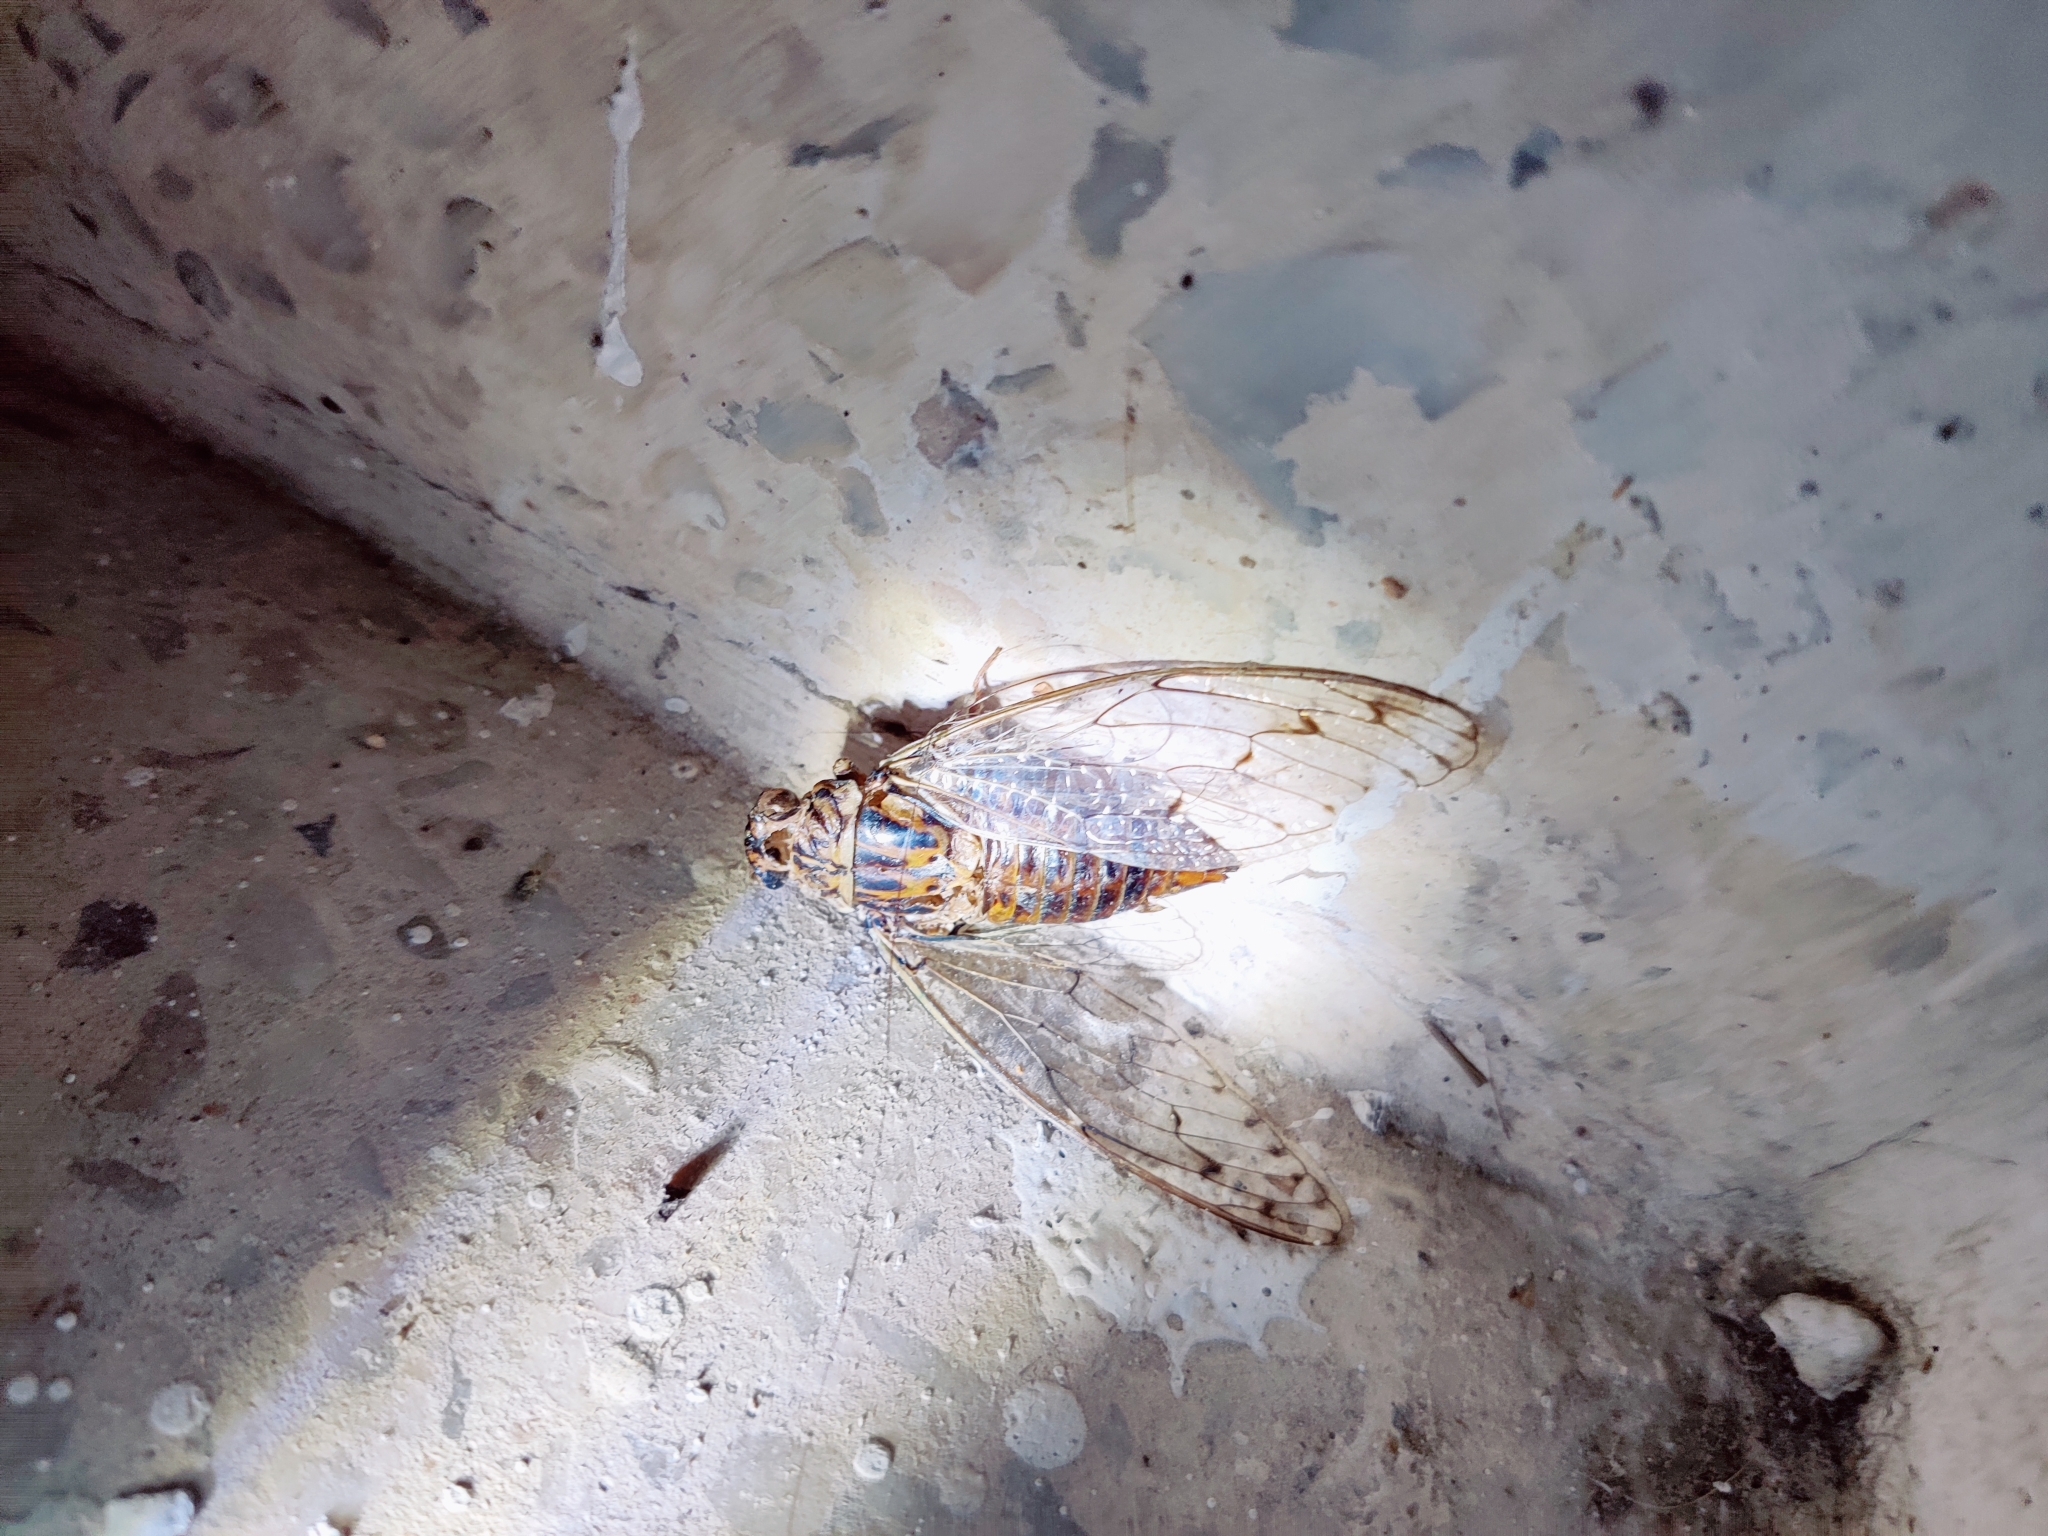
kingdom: Animalia
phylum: Arthropoda
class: Insecta
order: Hemiptera
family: Cicadidae
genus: Cicada
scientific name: Cicada mordoganensis
